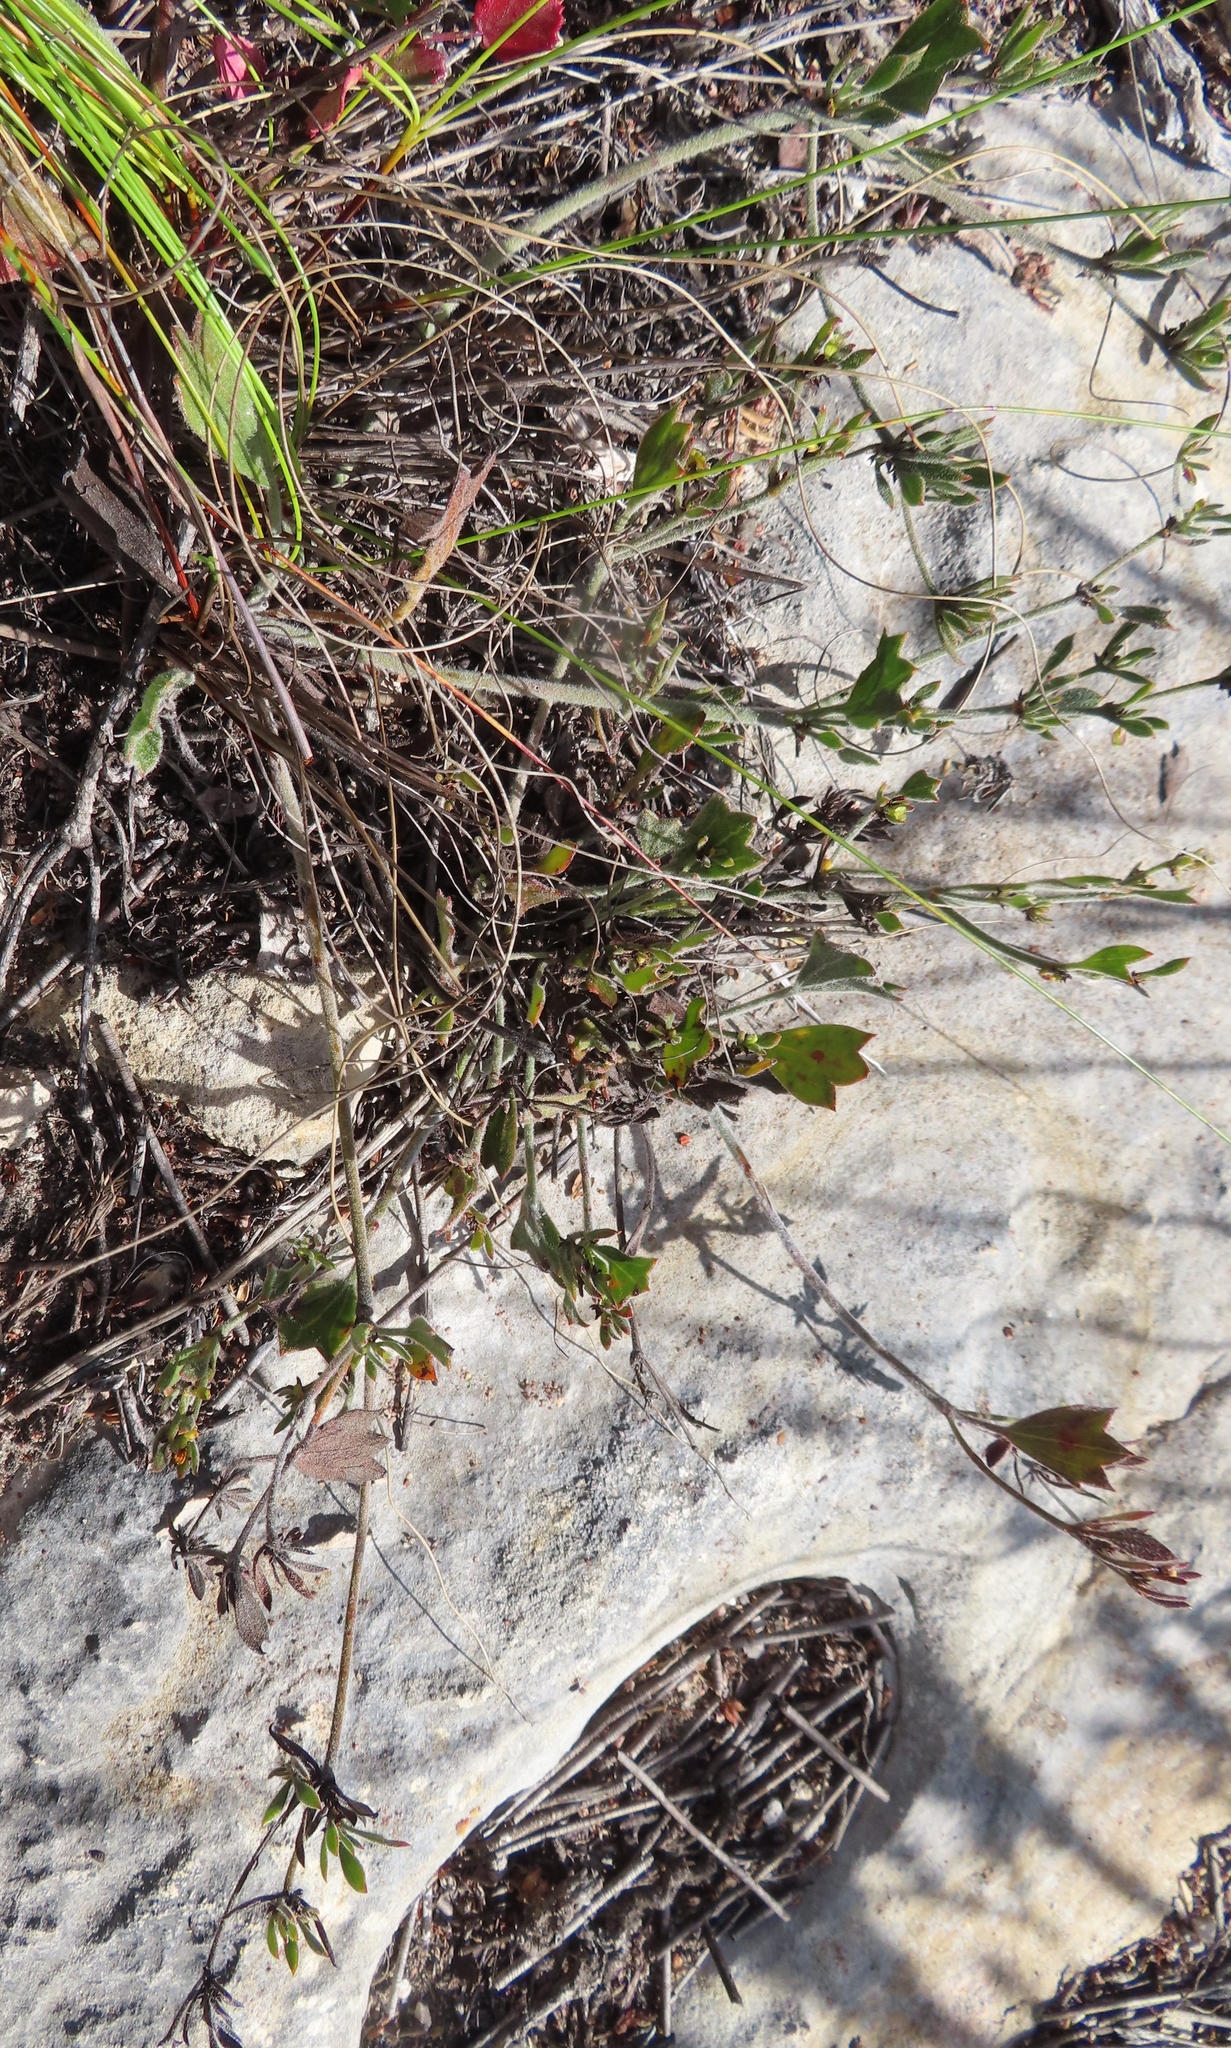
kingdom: Plantae
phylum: Tracheophyta
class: Magnoliopsida
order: Apiales
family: Apiaceae
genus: Centella
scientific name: Centella brachycarpa
